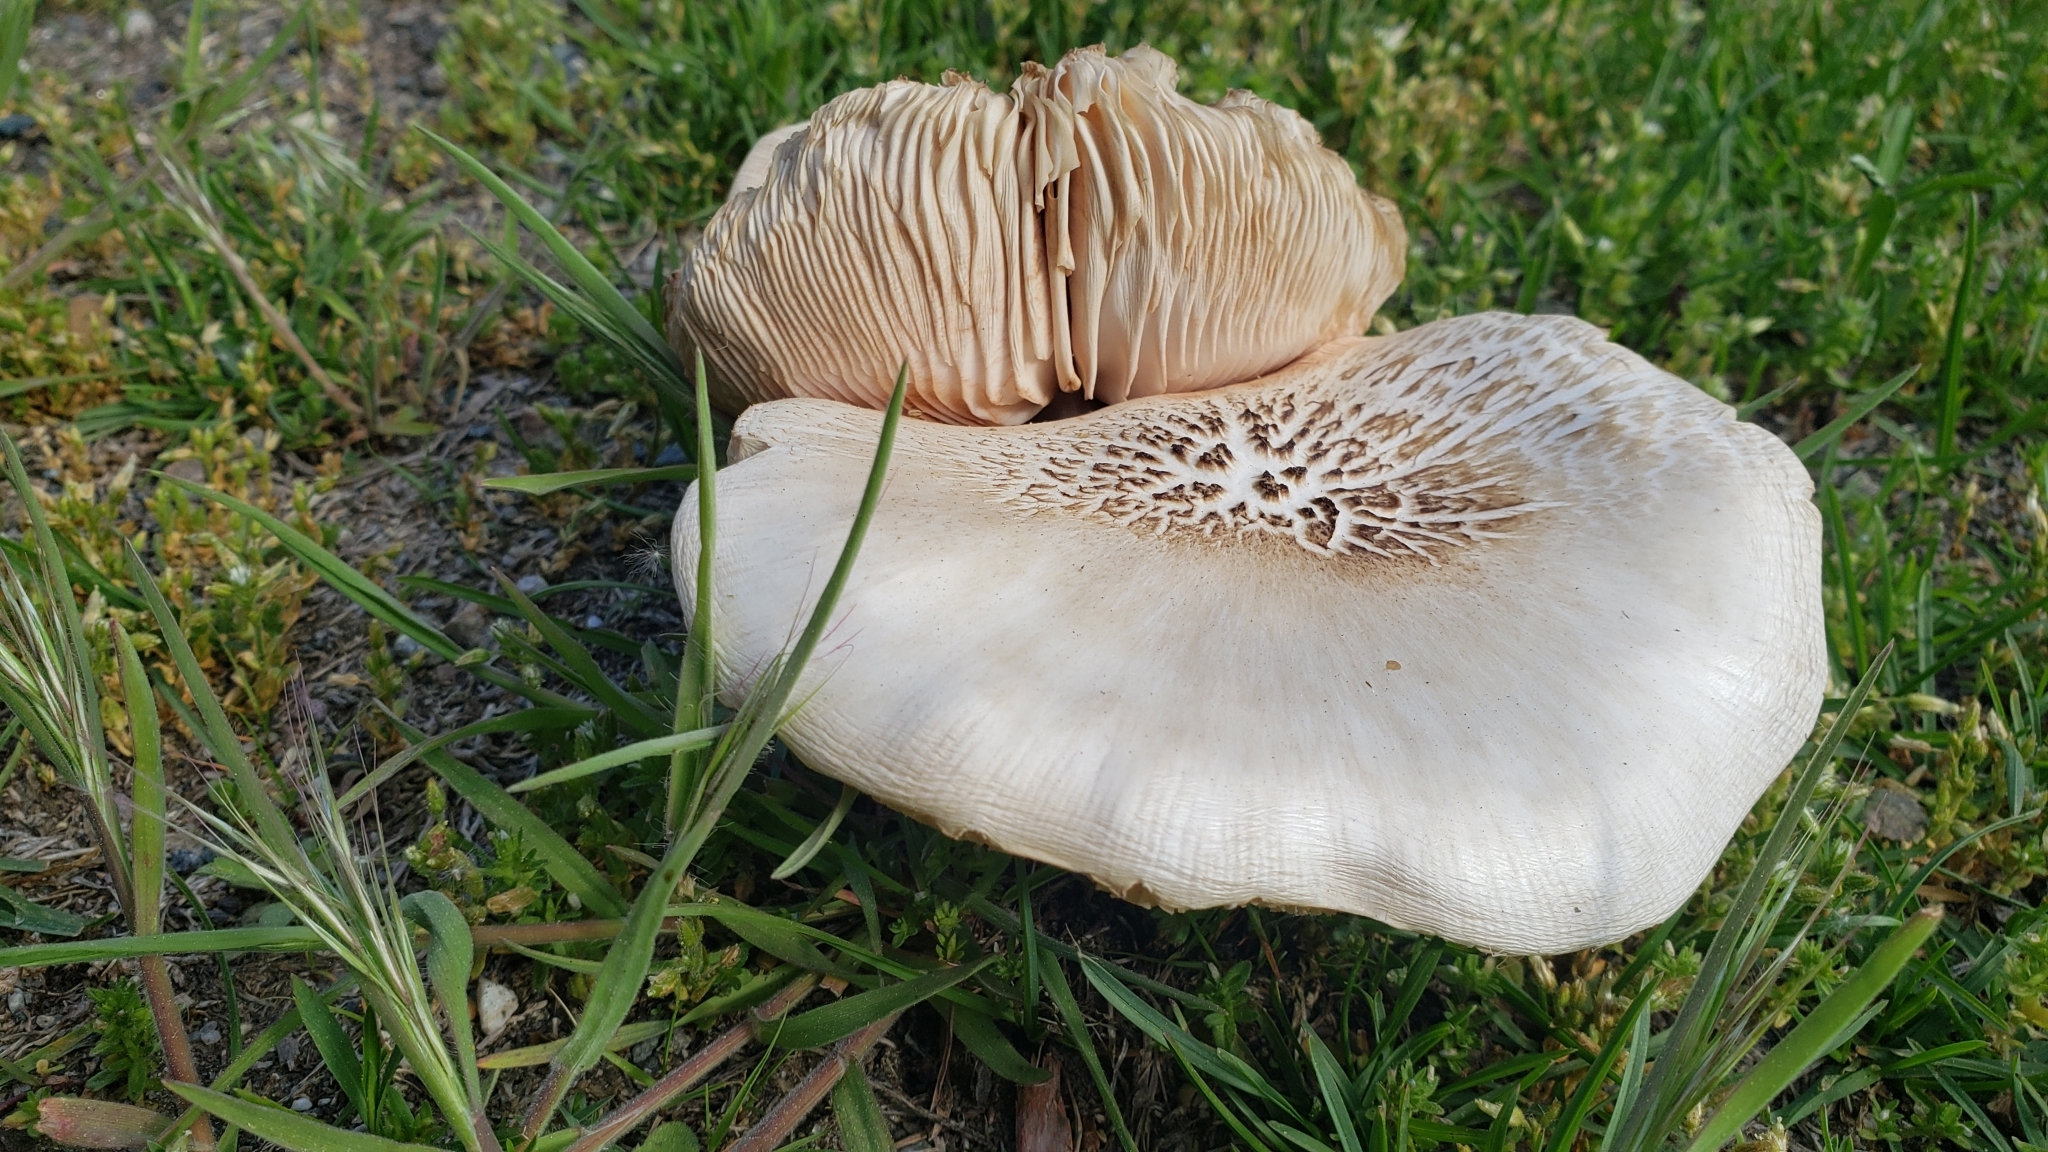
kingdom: Fungi
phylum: Basidiomycota
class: Agaricomycetes
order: Agaricales
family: Pluteaceae
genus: Pluteus
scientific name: Pluteus petasatus
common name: Scaly shield
